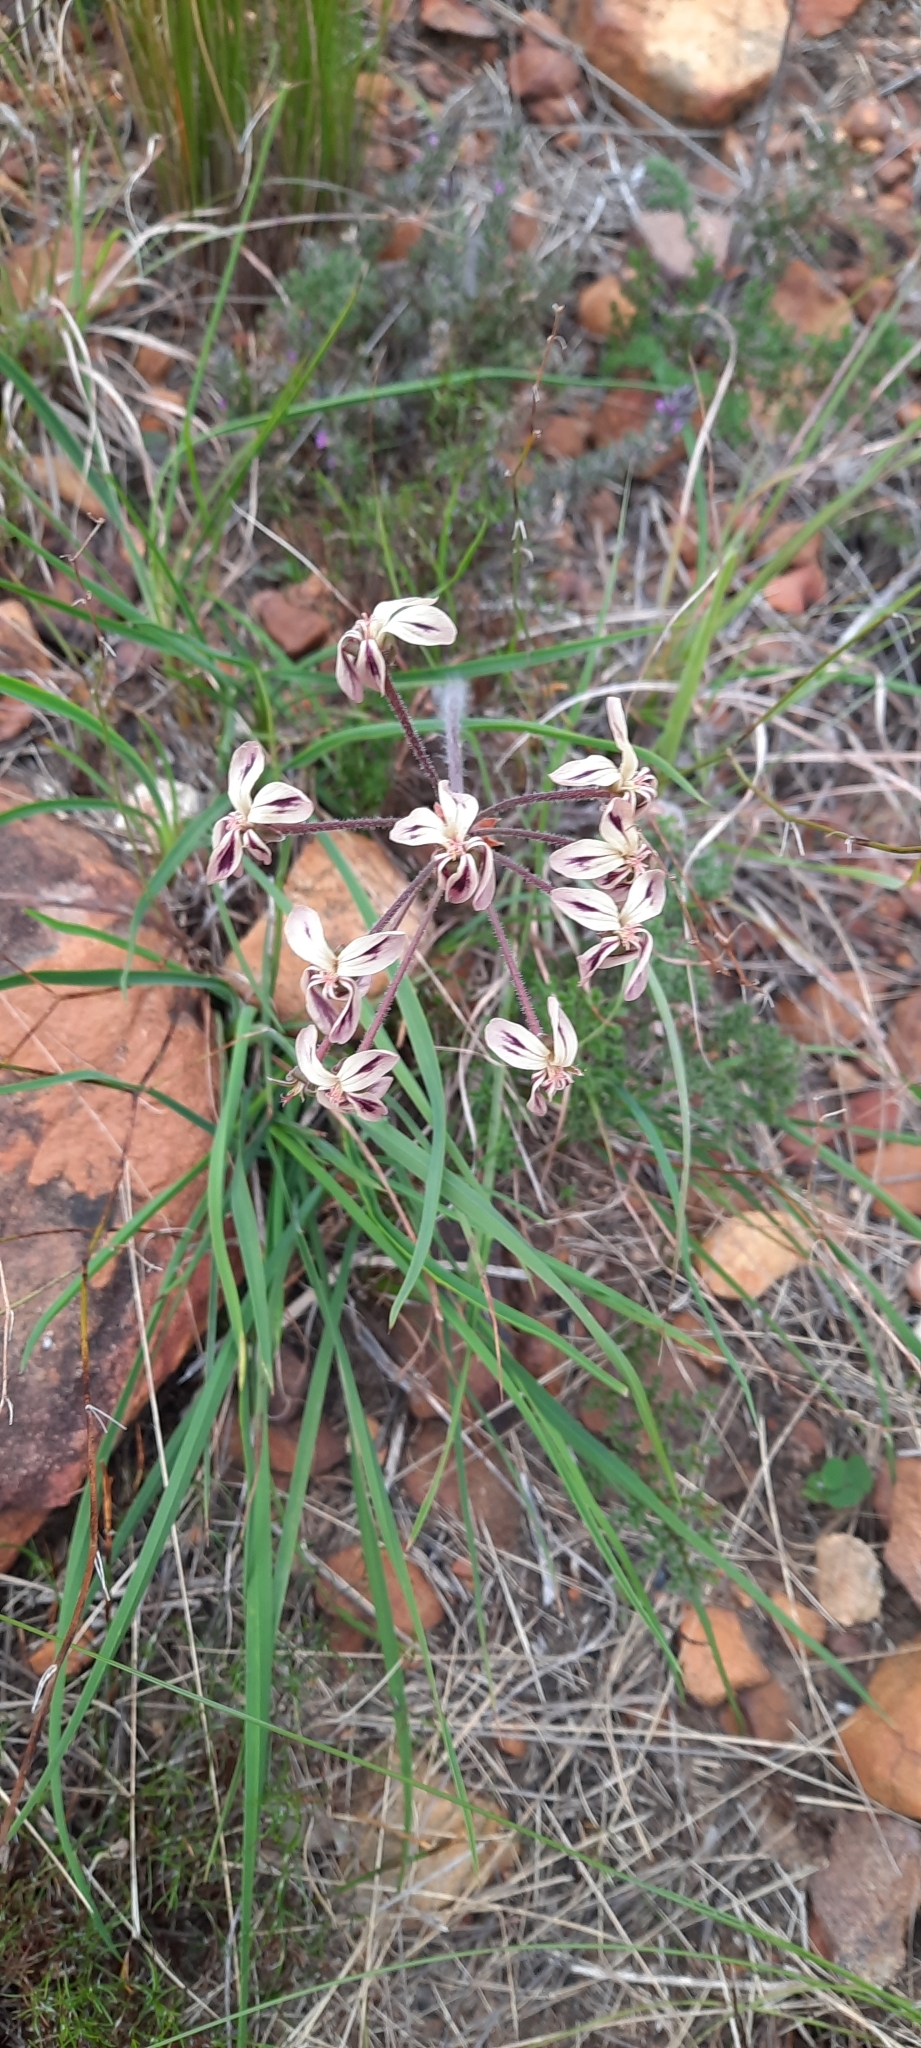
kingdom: Plantae
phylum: Tracheophyta
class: Magnoliopsida
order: Geraniales
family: Geraniaceae
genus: Pelargonium
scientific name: Pelargonium triste
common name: Night-scent pelargonium
